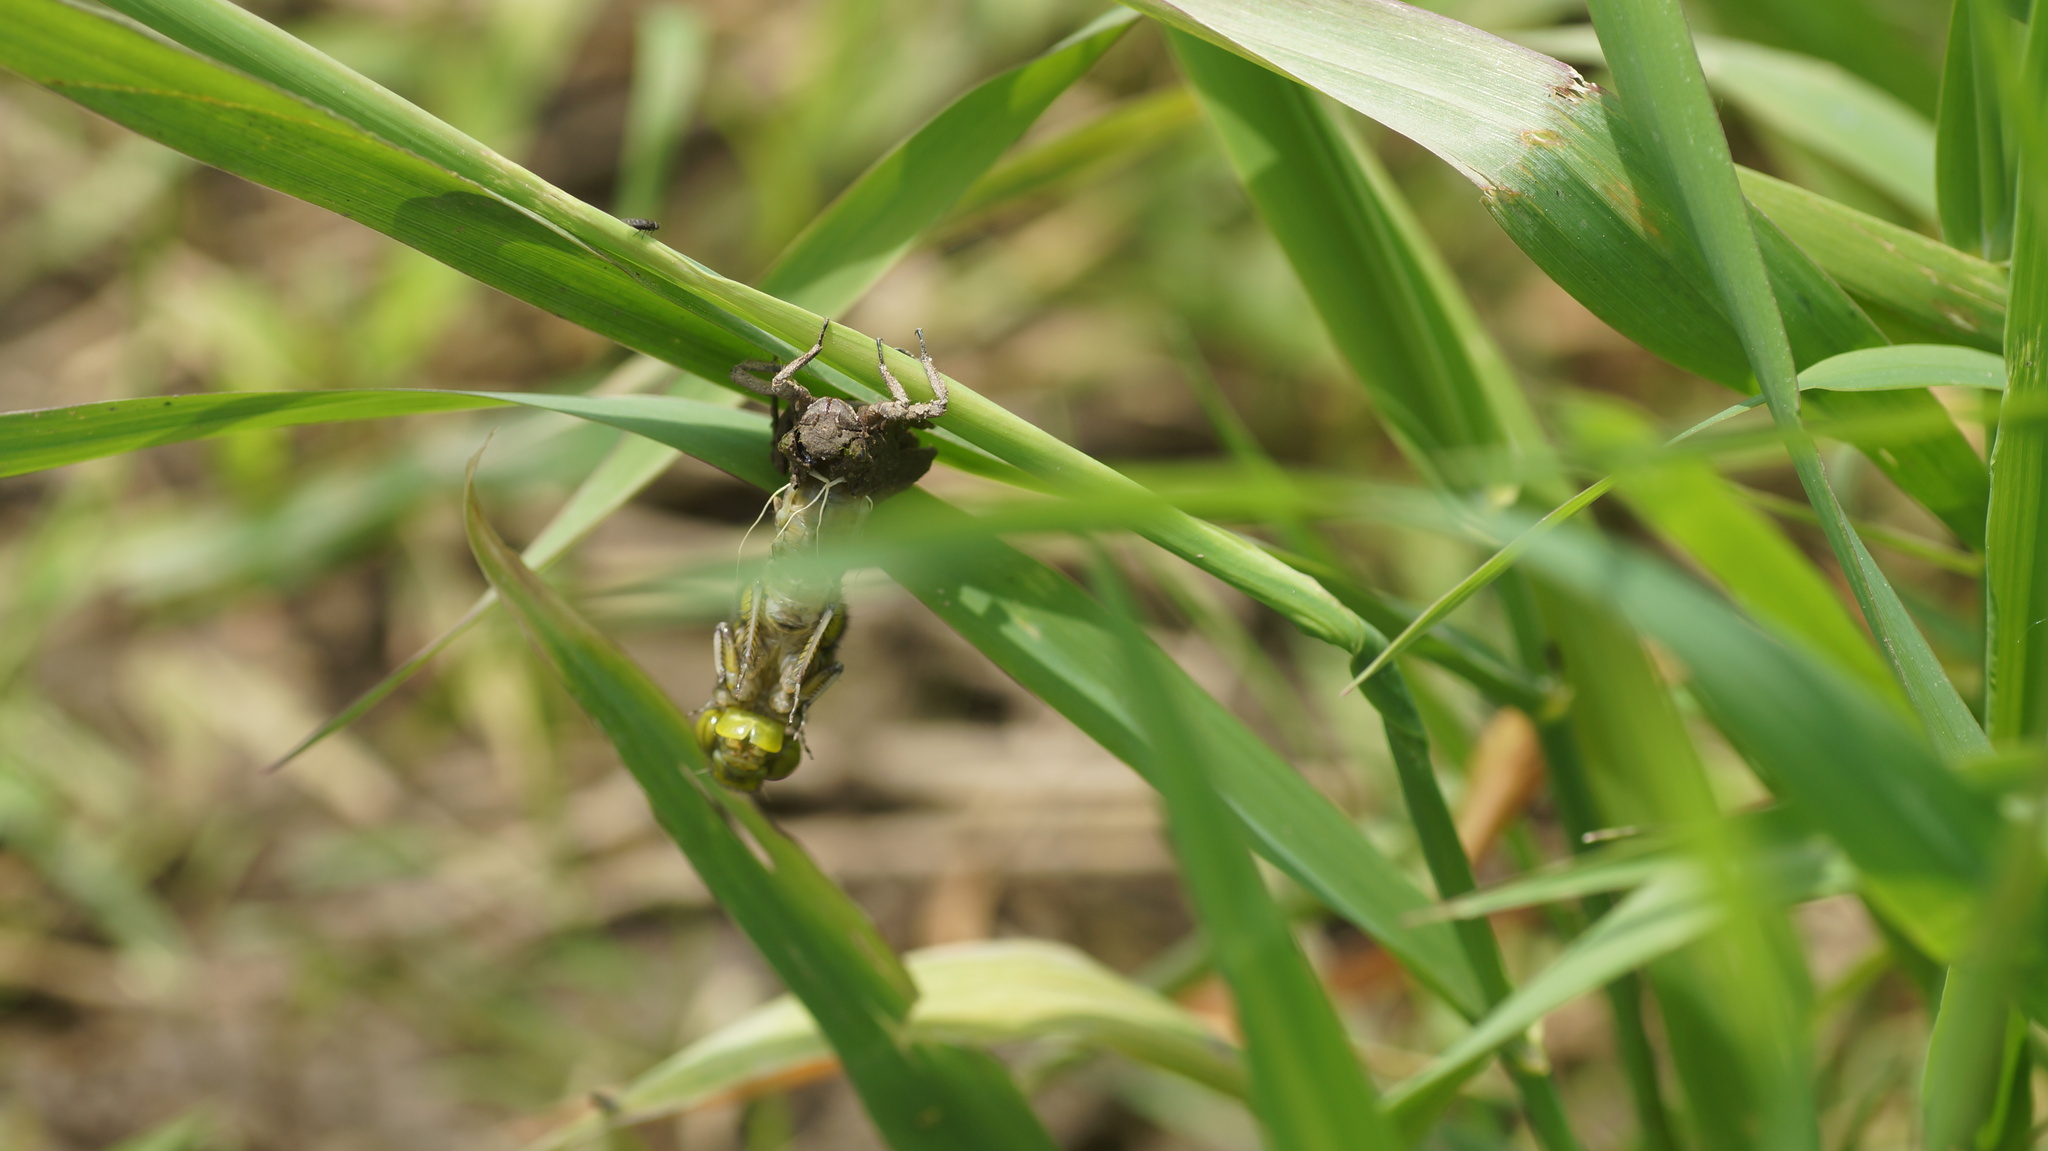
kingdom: Animalia
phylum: Arthropoda
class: Insecta
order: Odonata
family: Gomphidae
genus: Gomphus
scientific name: Gomphus vulgatissimus
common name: Club-tailed dragonfly
